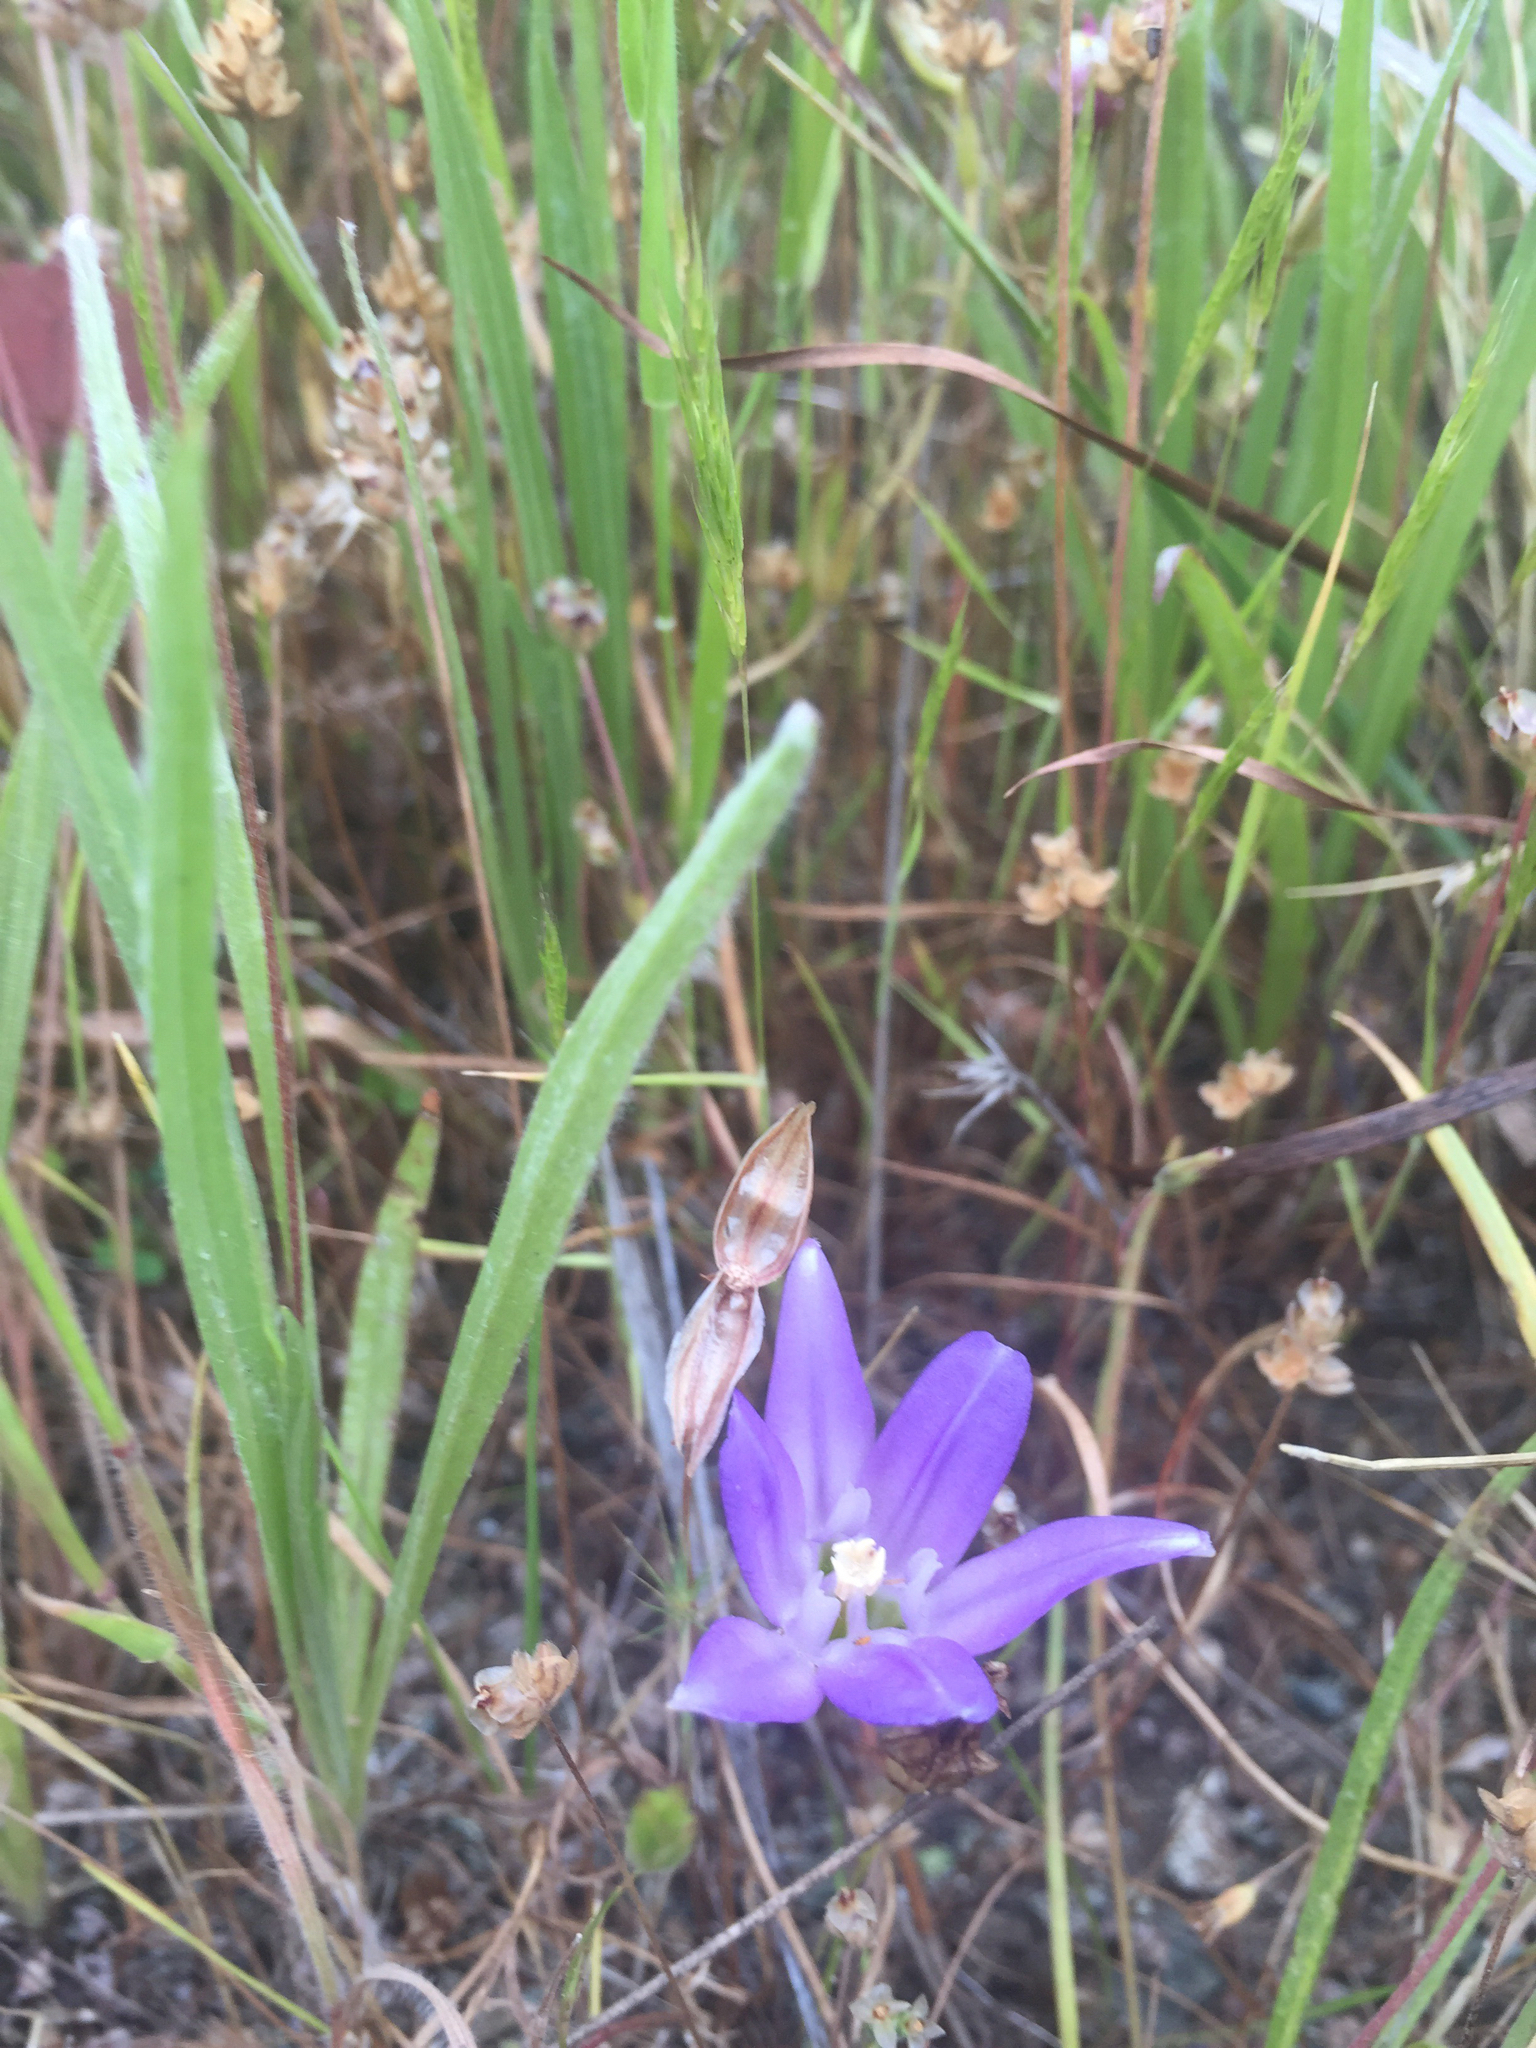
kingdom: Plantae
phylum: Tracheophyta
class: Liliopsida
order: Asparagales
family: Asparagaceae
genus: Brodiaea
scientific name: Brodiaea terrestris
